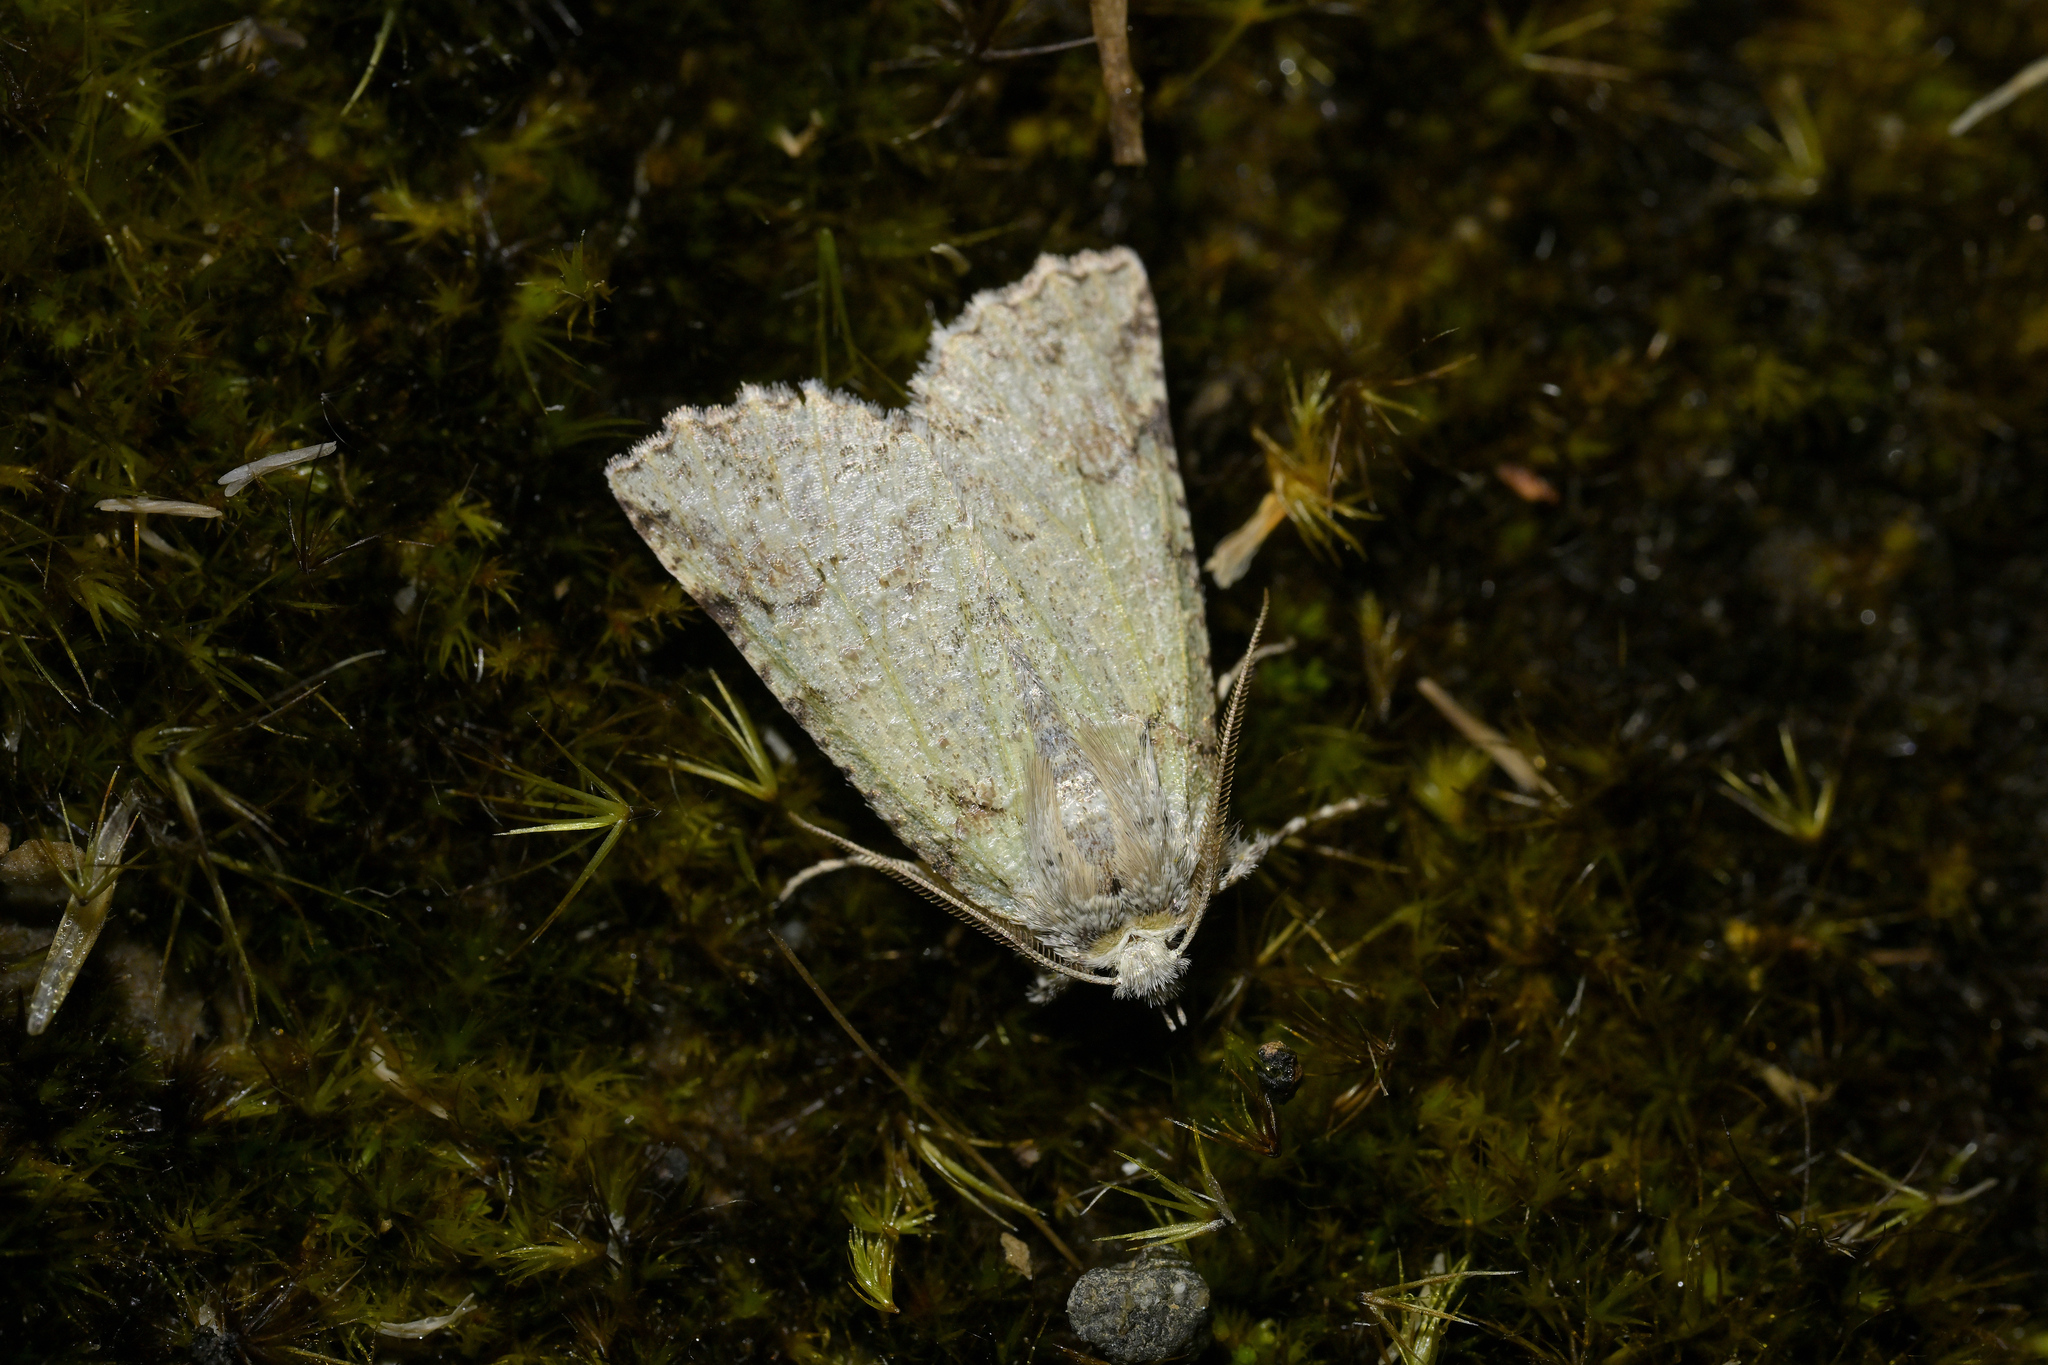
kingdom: Animalia
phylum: Arthropoda
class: Insecta
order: Lepidoptera
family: Geometridae
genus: Declana
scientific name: Declana floccosa
